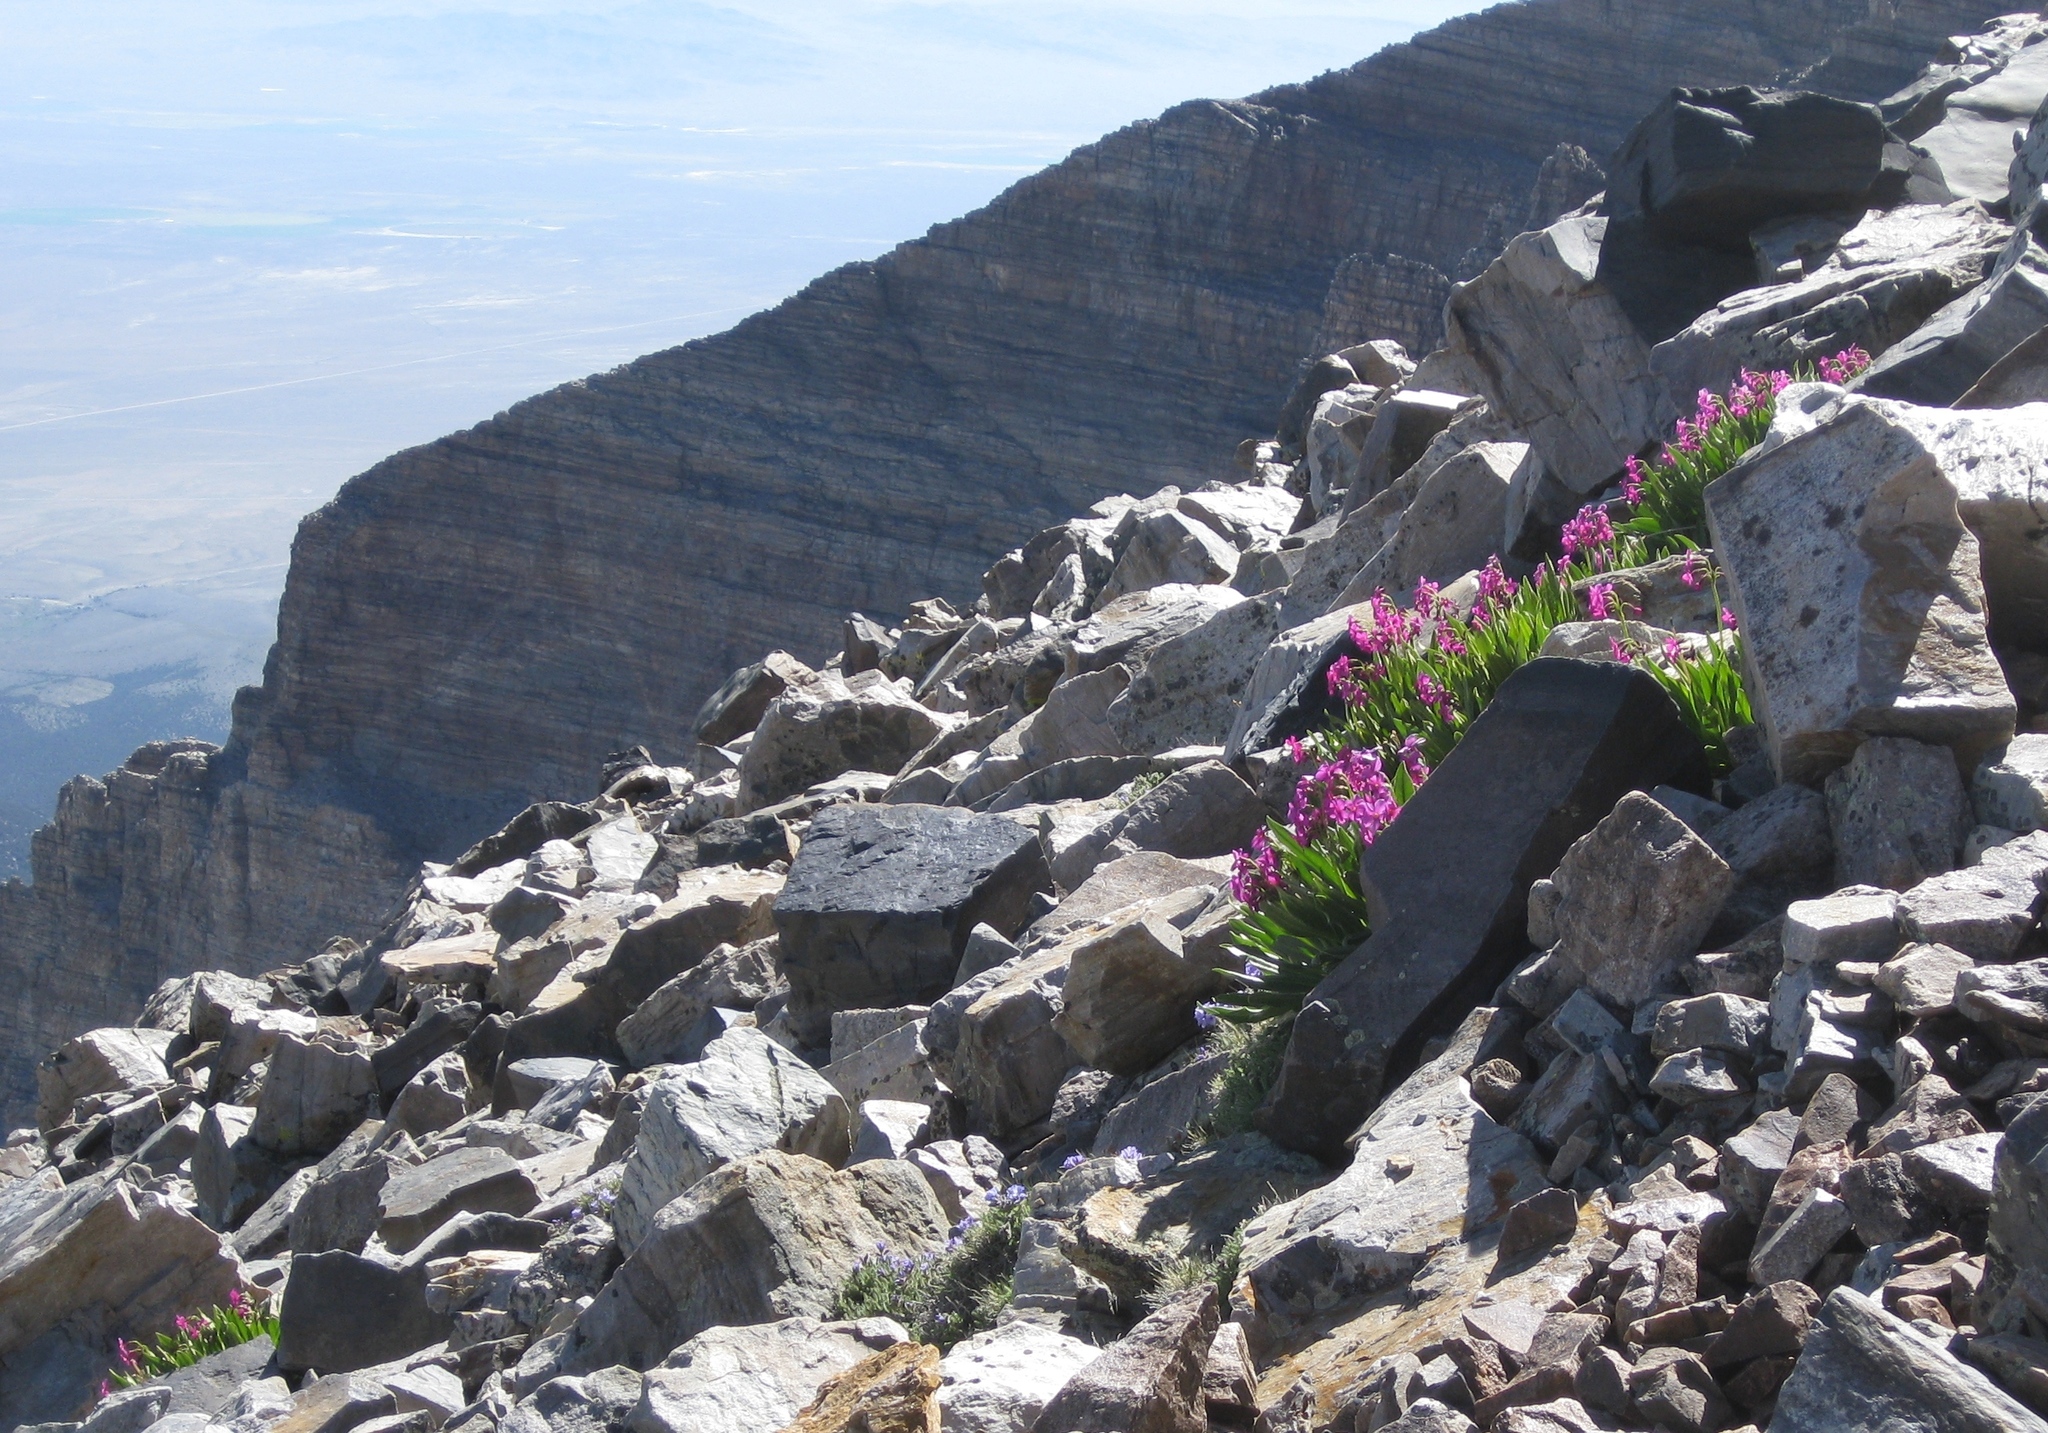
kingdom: Plantae
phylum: Tracheophyta
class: Magnoliopsida
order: Ericales
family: Primulaceae
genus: Primula
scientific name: Primula parryi
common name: Parry's primrose
